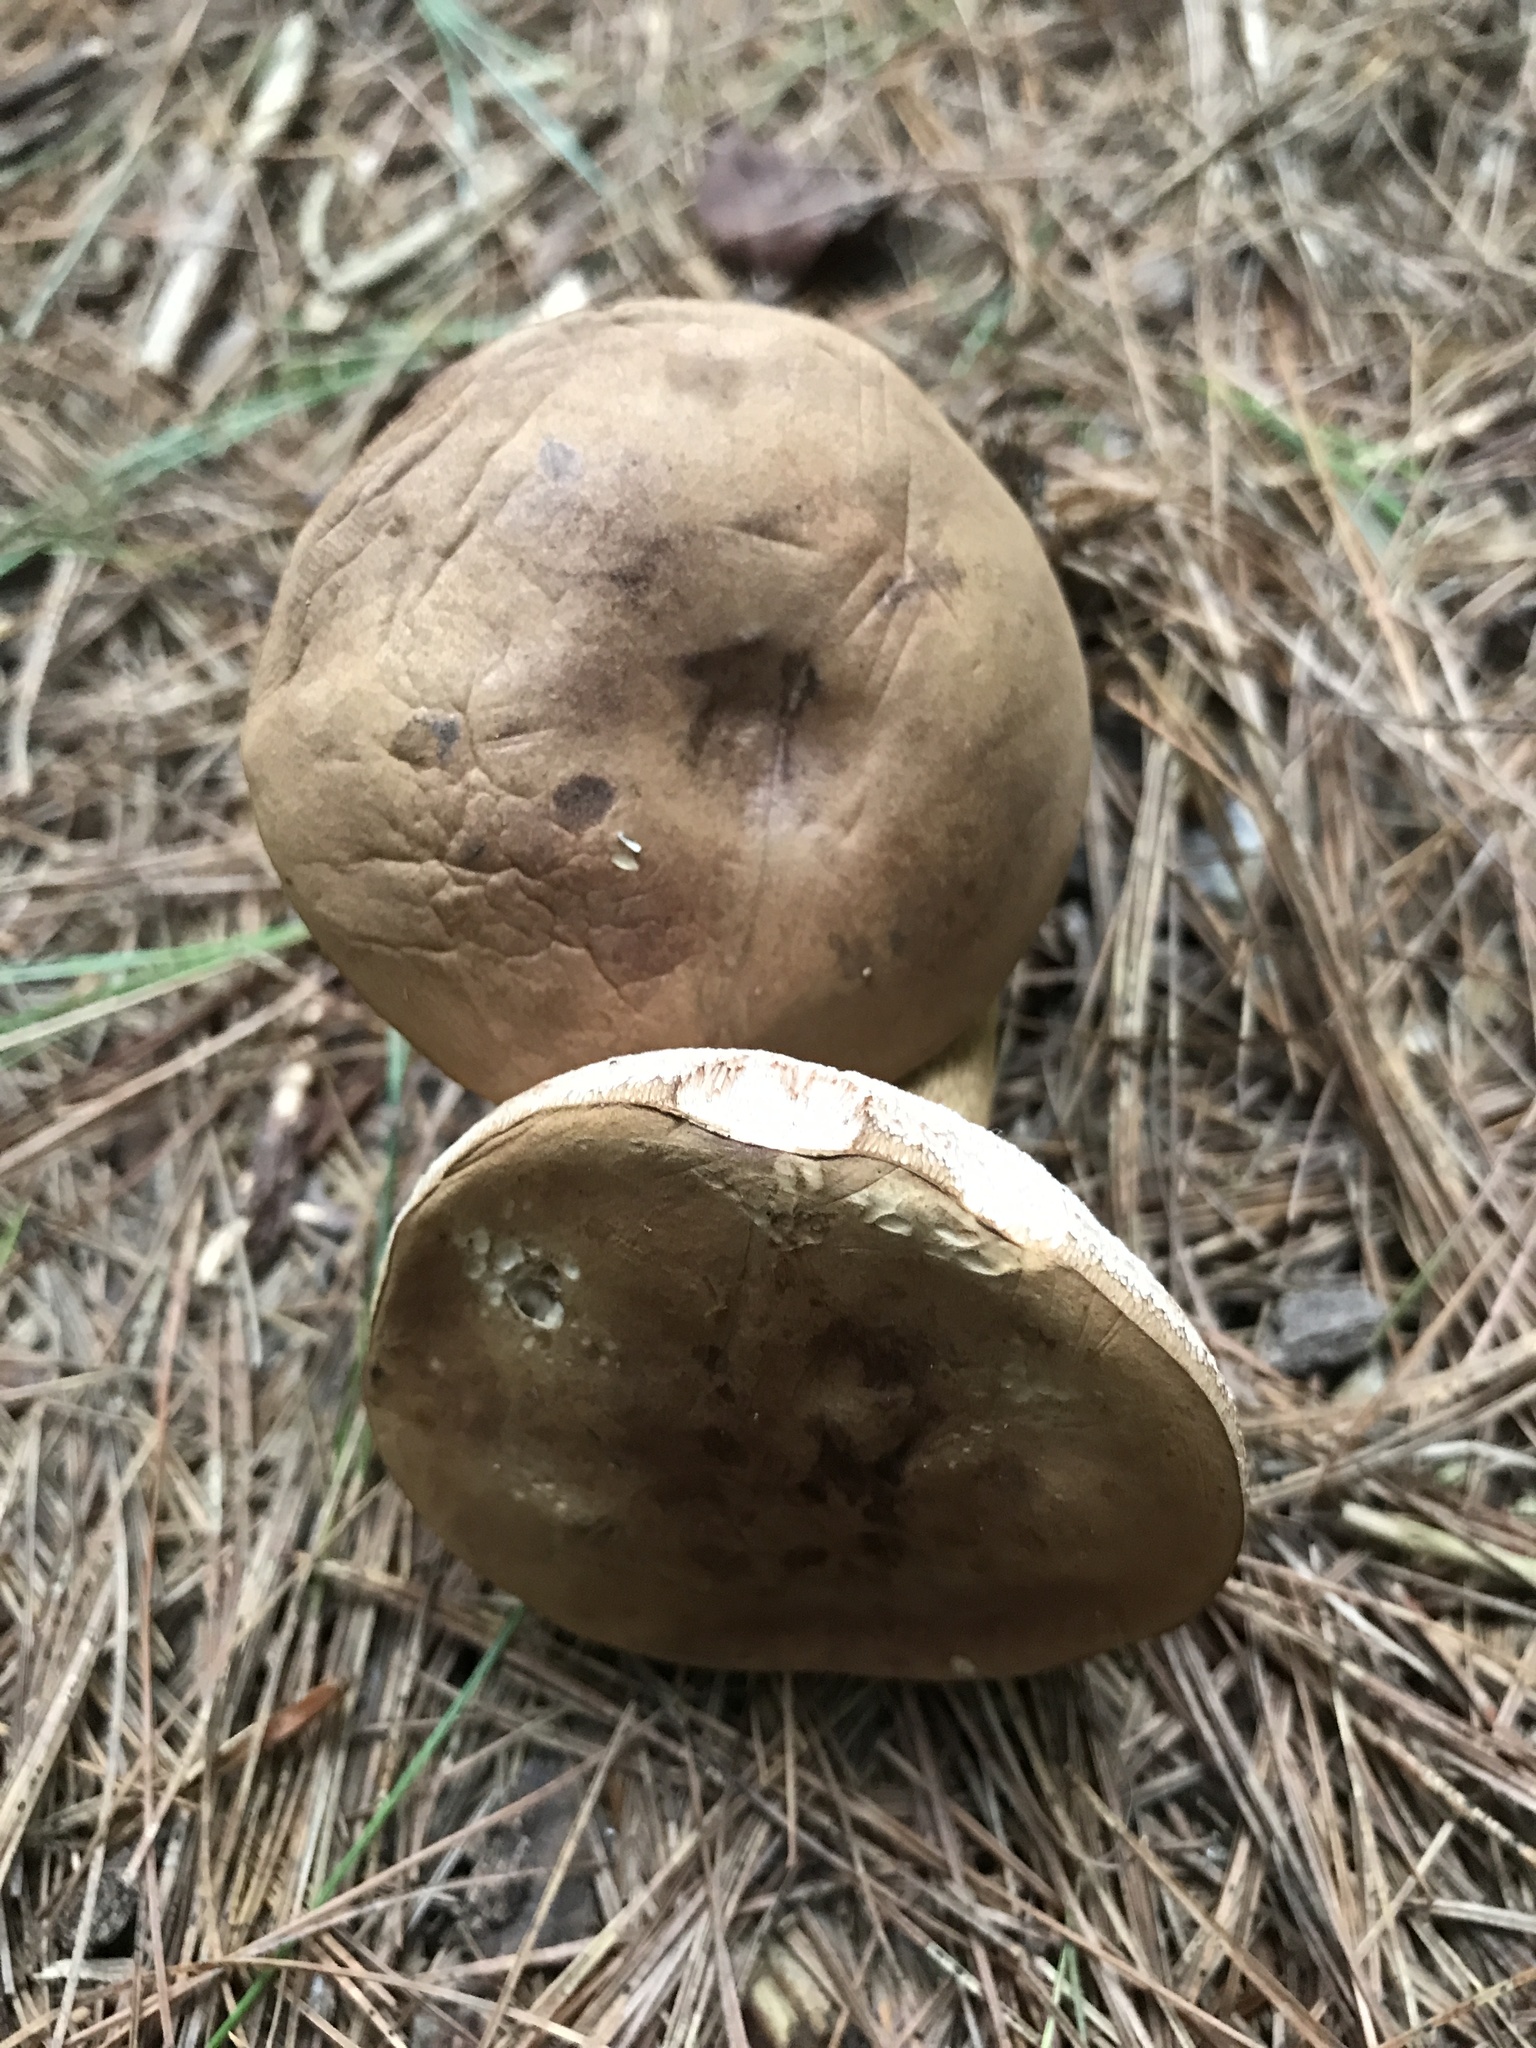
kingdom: Fungi
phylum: Basidiomycota
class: Agaricomycetes
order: Boletales
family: Boletaceae
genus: Tylopilus
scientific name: Tylopilus felleus
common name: Bitter bolete
